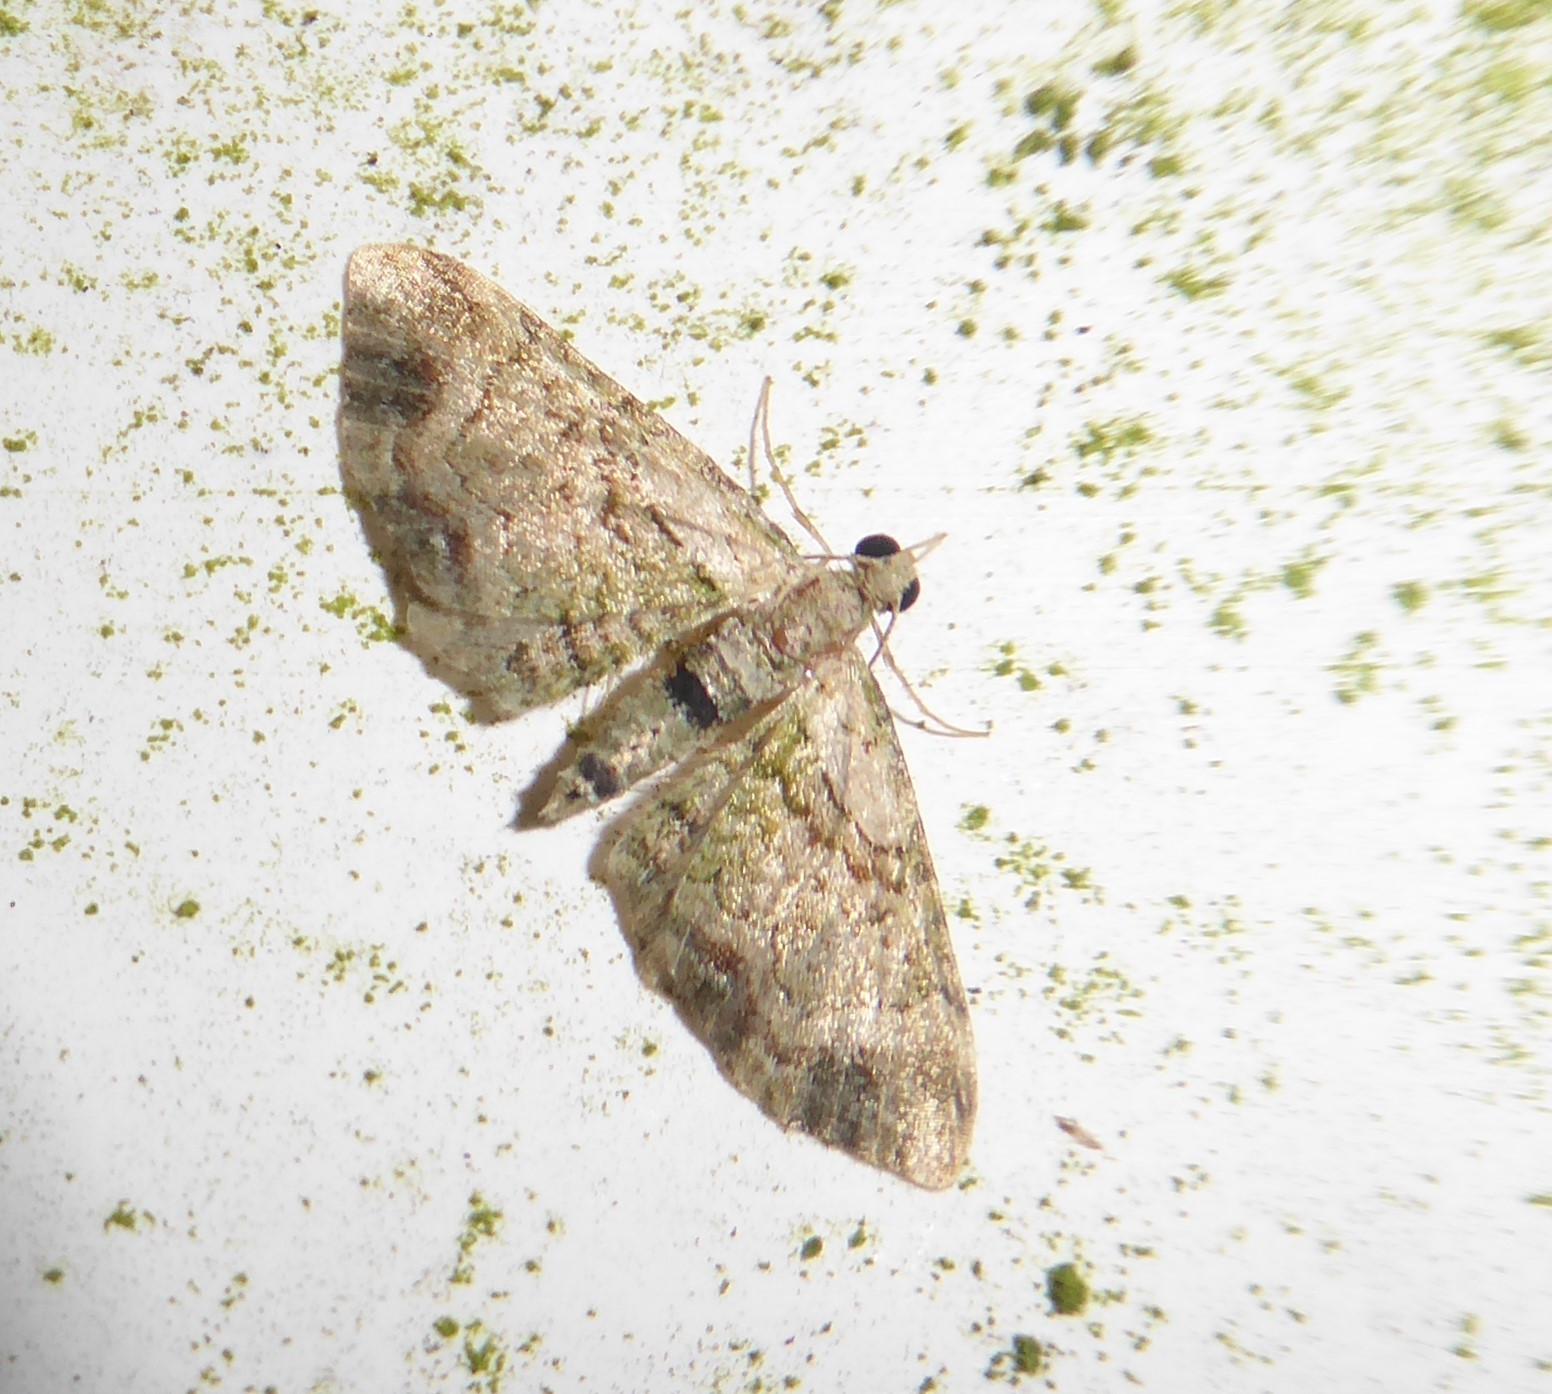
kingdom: Animalia
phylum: Arthropoda
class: Insecta
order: Lepidoptera
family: Geometridae
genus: Chloroclystis
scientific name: Chloroclystis
